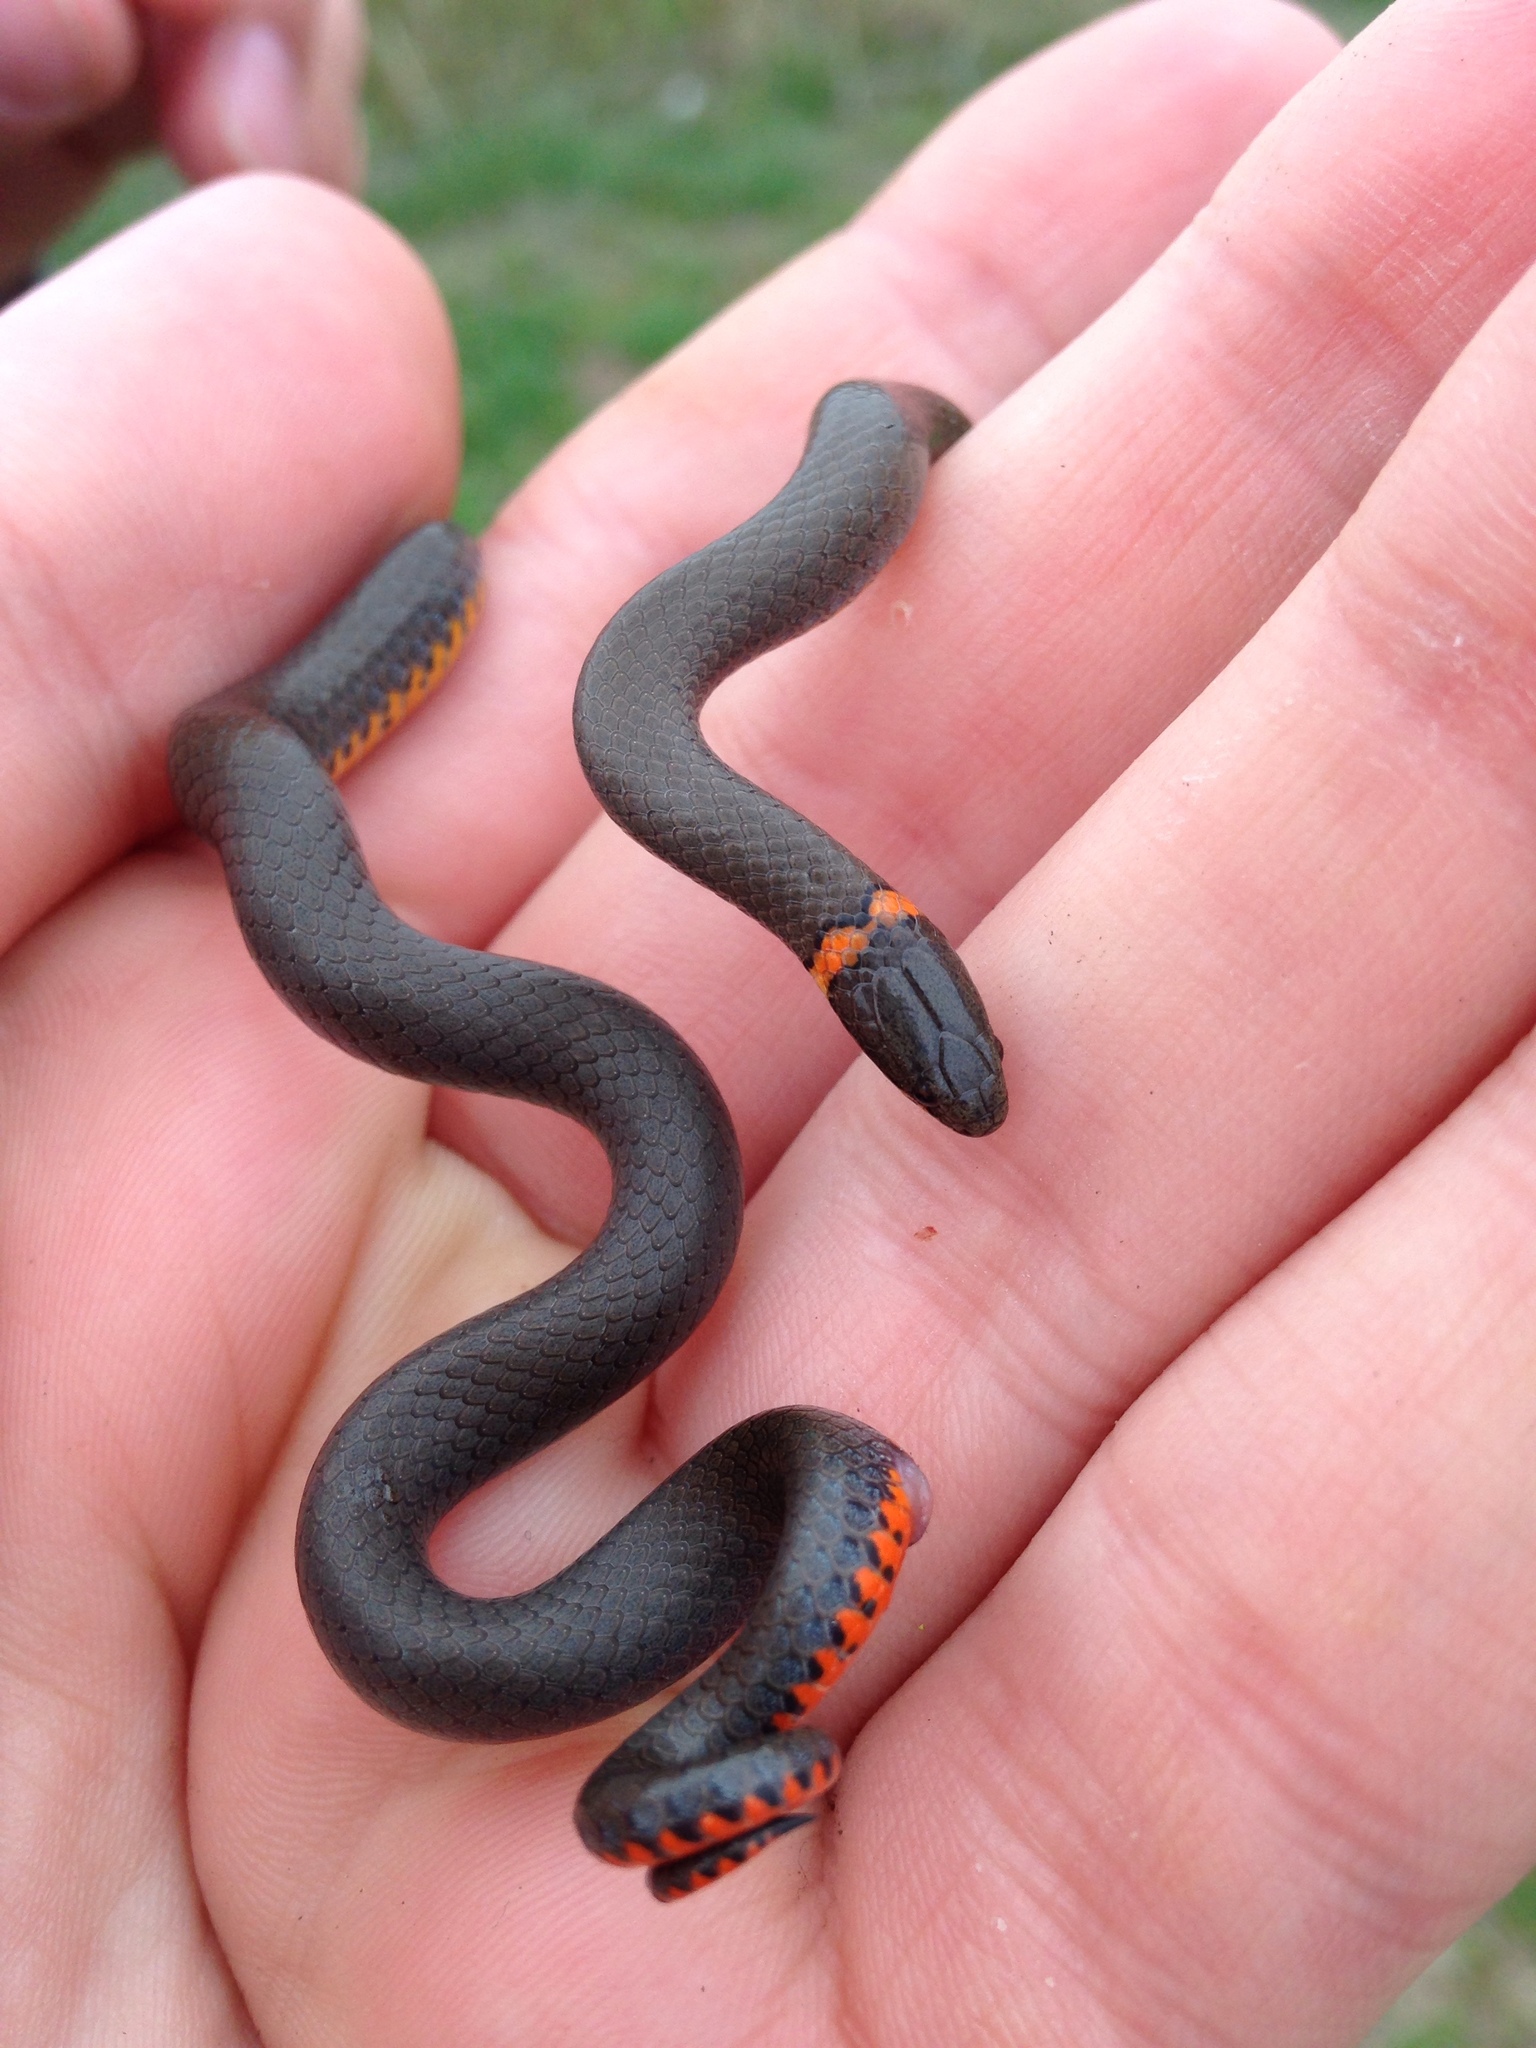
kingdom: Animalia
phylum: Chordata
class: Squamata
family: Colubridae
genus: Diadophis
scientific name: Diadophis punctatus
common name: Ringneck snake
